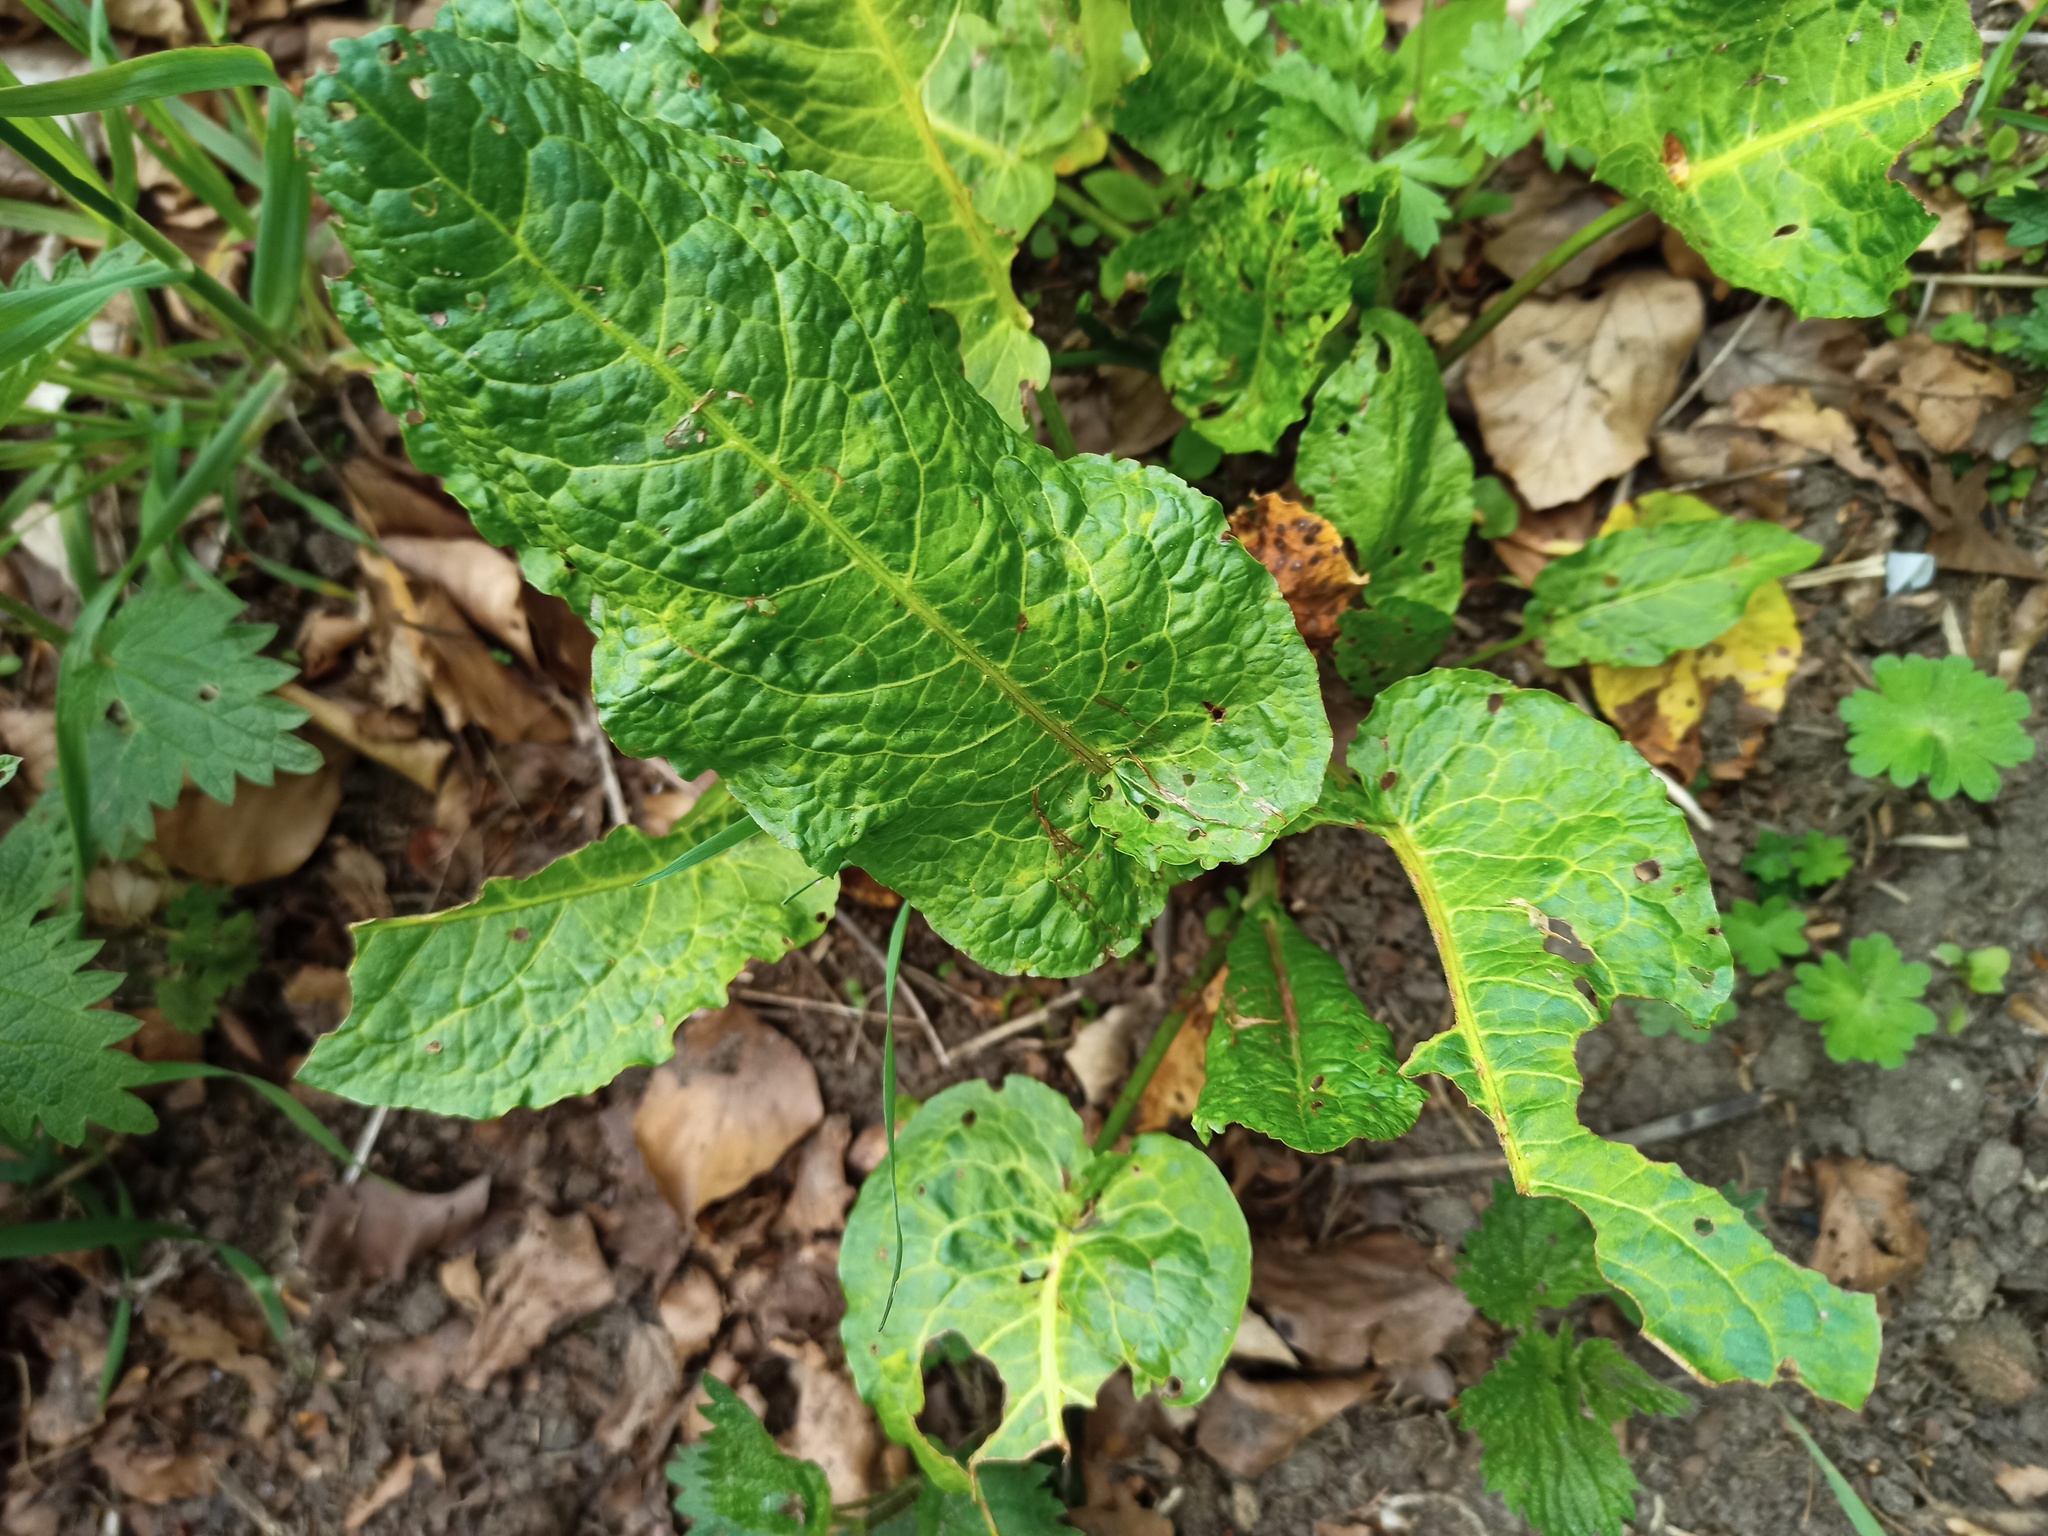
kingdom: Plantae
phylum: Tracheophyta
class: Magnoliopsida
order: Caryophyllales
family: Polygonaceae
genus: Rumex
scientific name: Rumex obtusifolius
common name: Bitter dock
